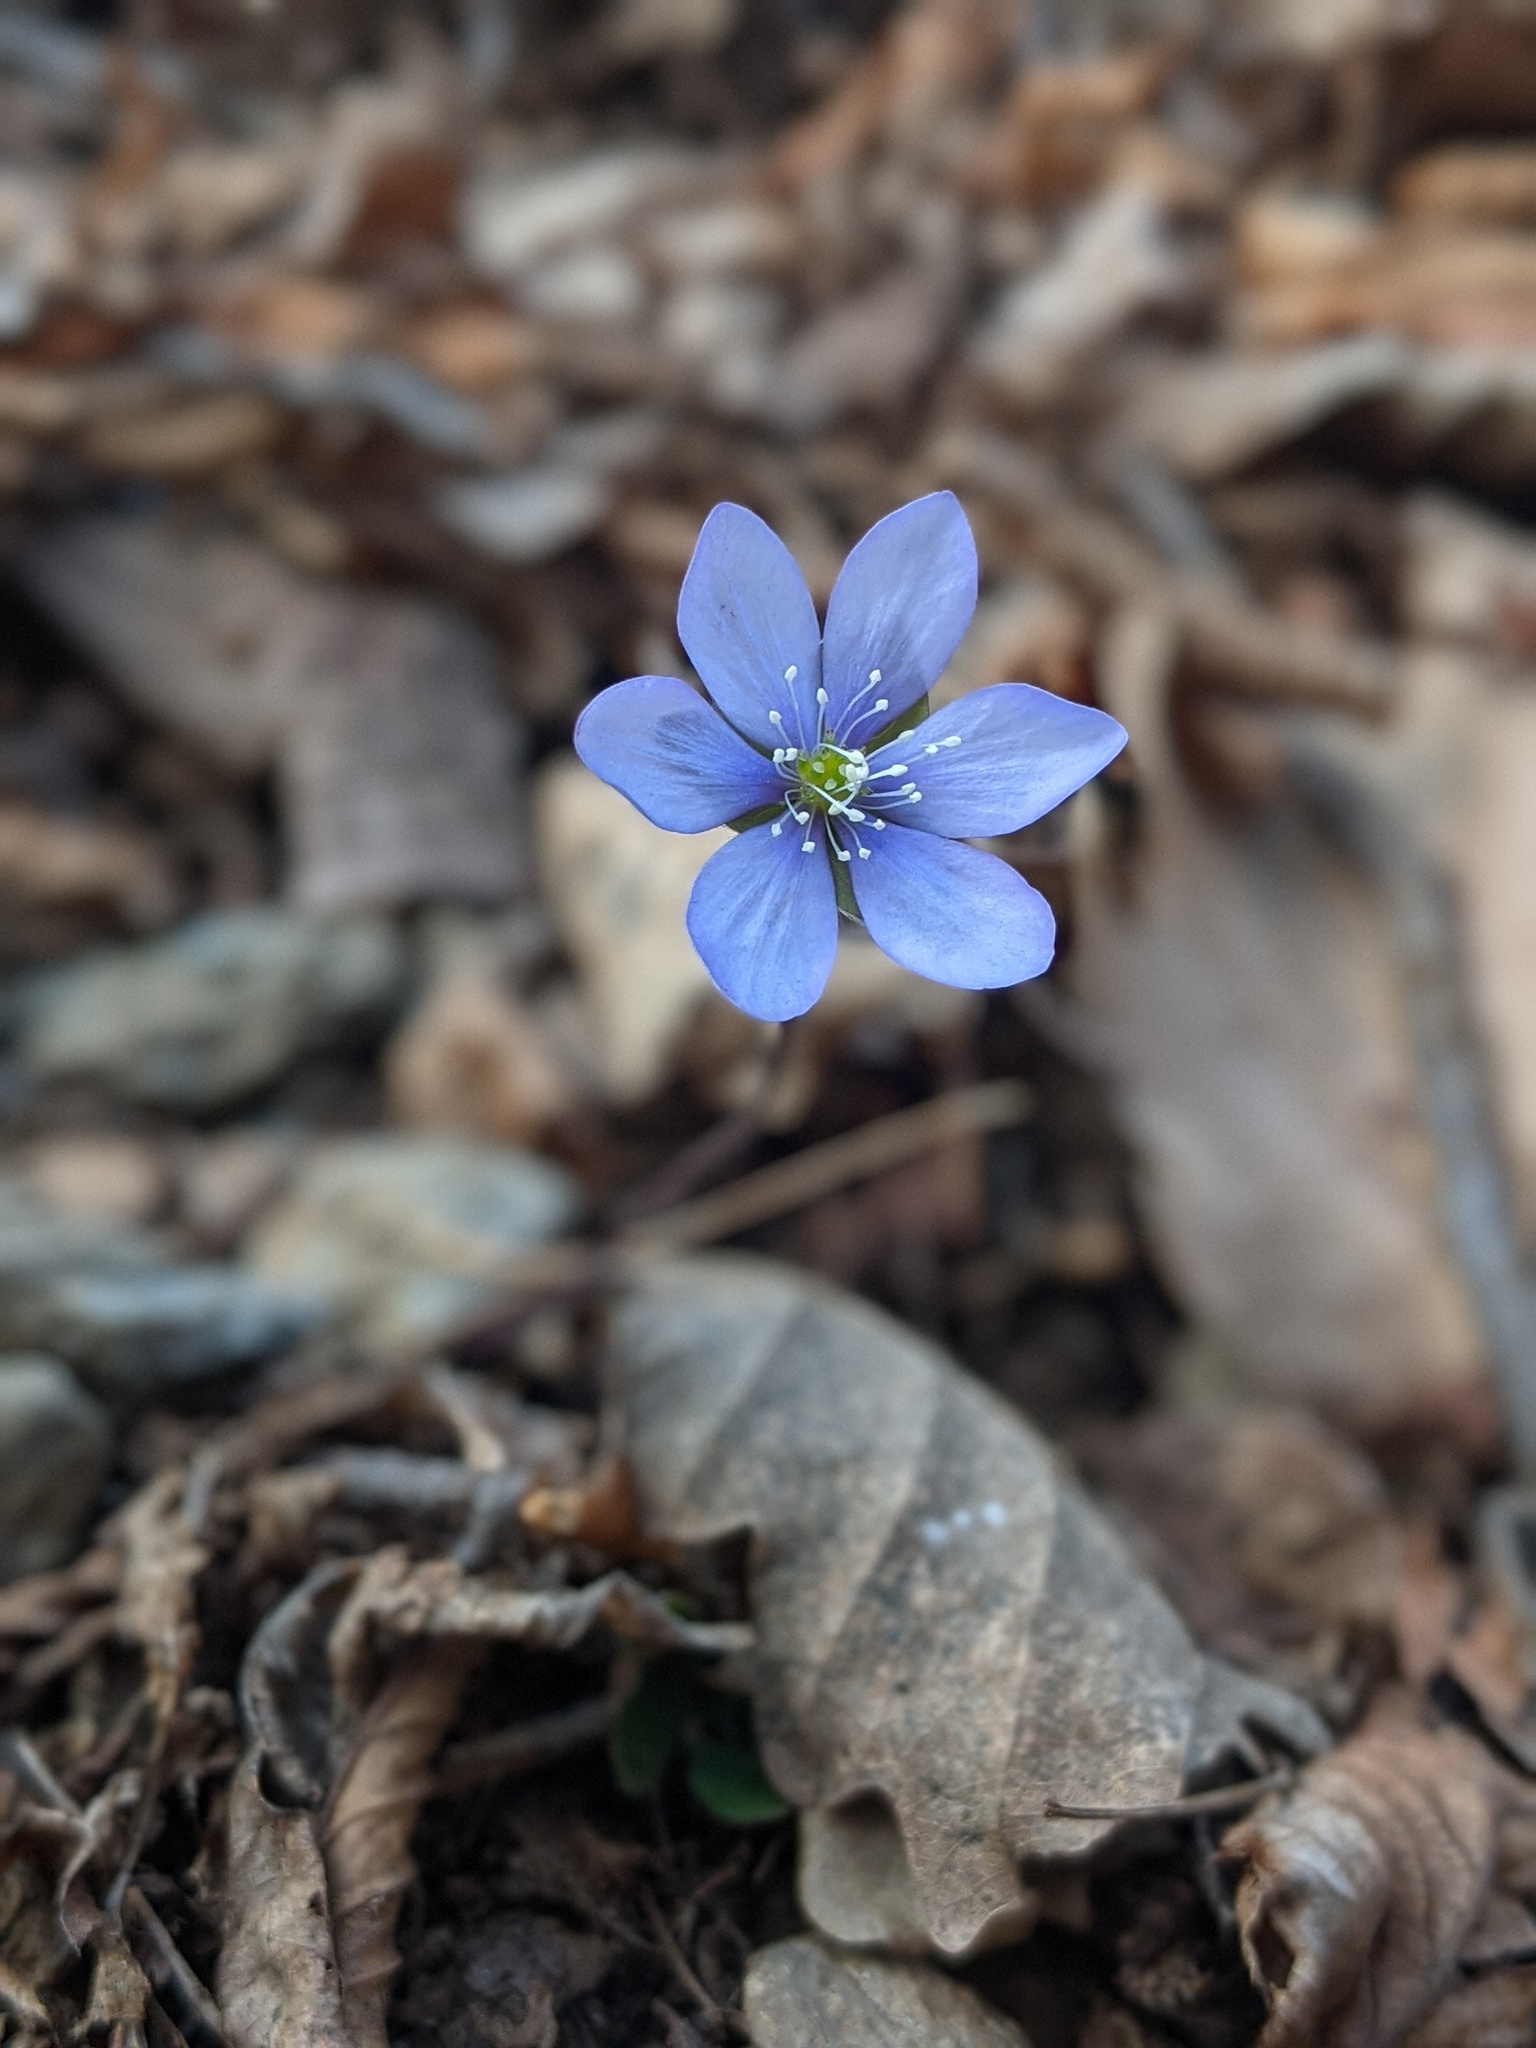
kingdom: Plantae
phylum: Tracheophyta
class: Magnoliopsida
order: Ranunculales
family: Ranunculaceae
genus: Hepatica
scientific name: Hepatica nobilis
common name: Liverleaf
